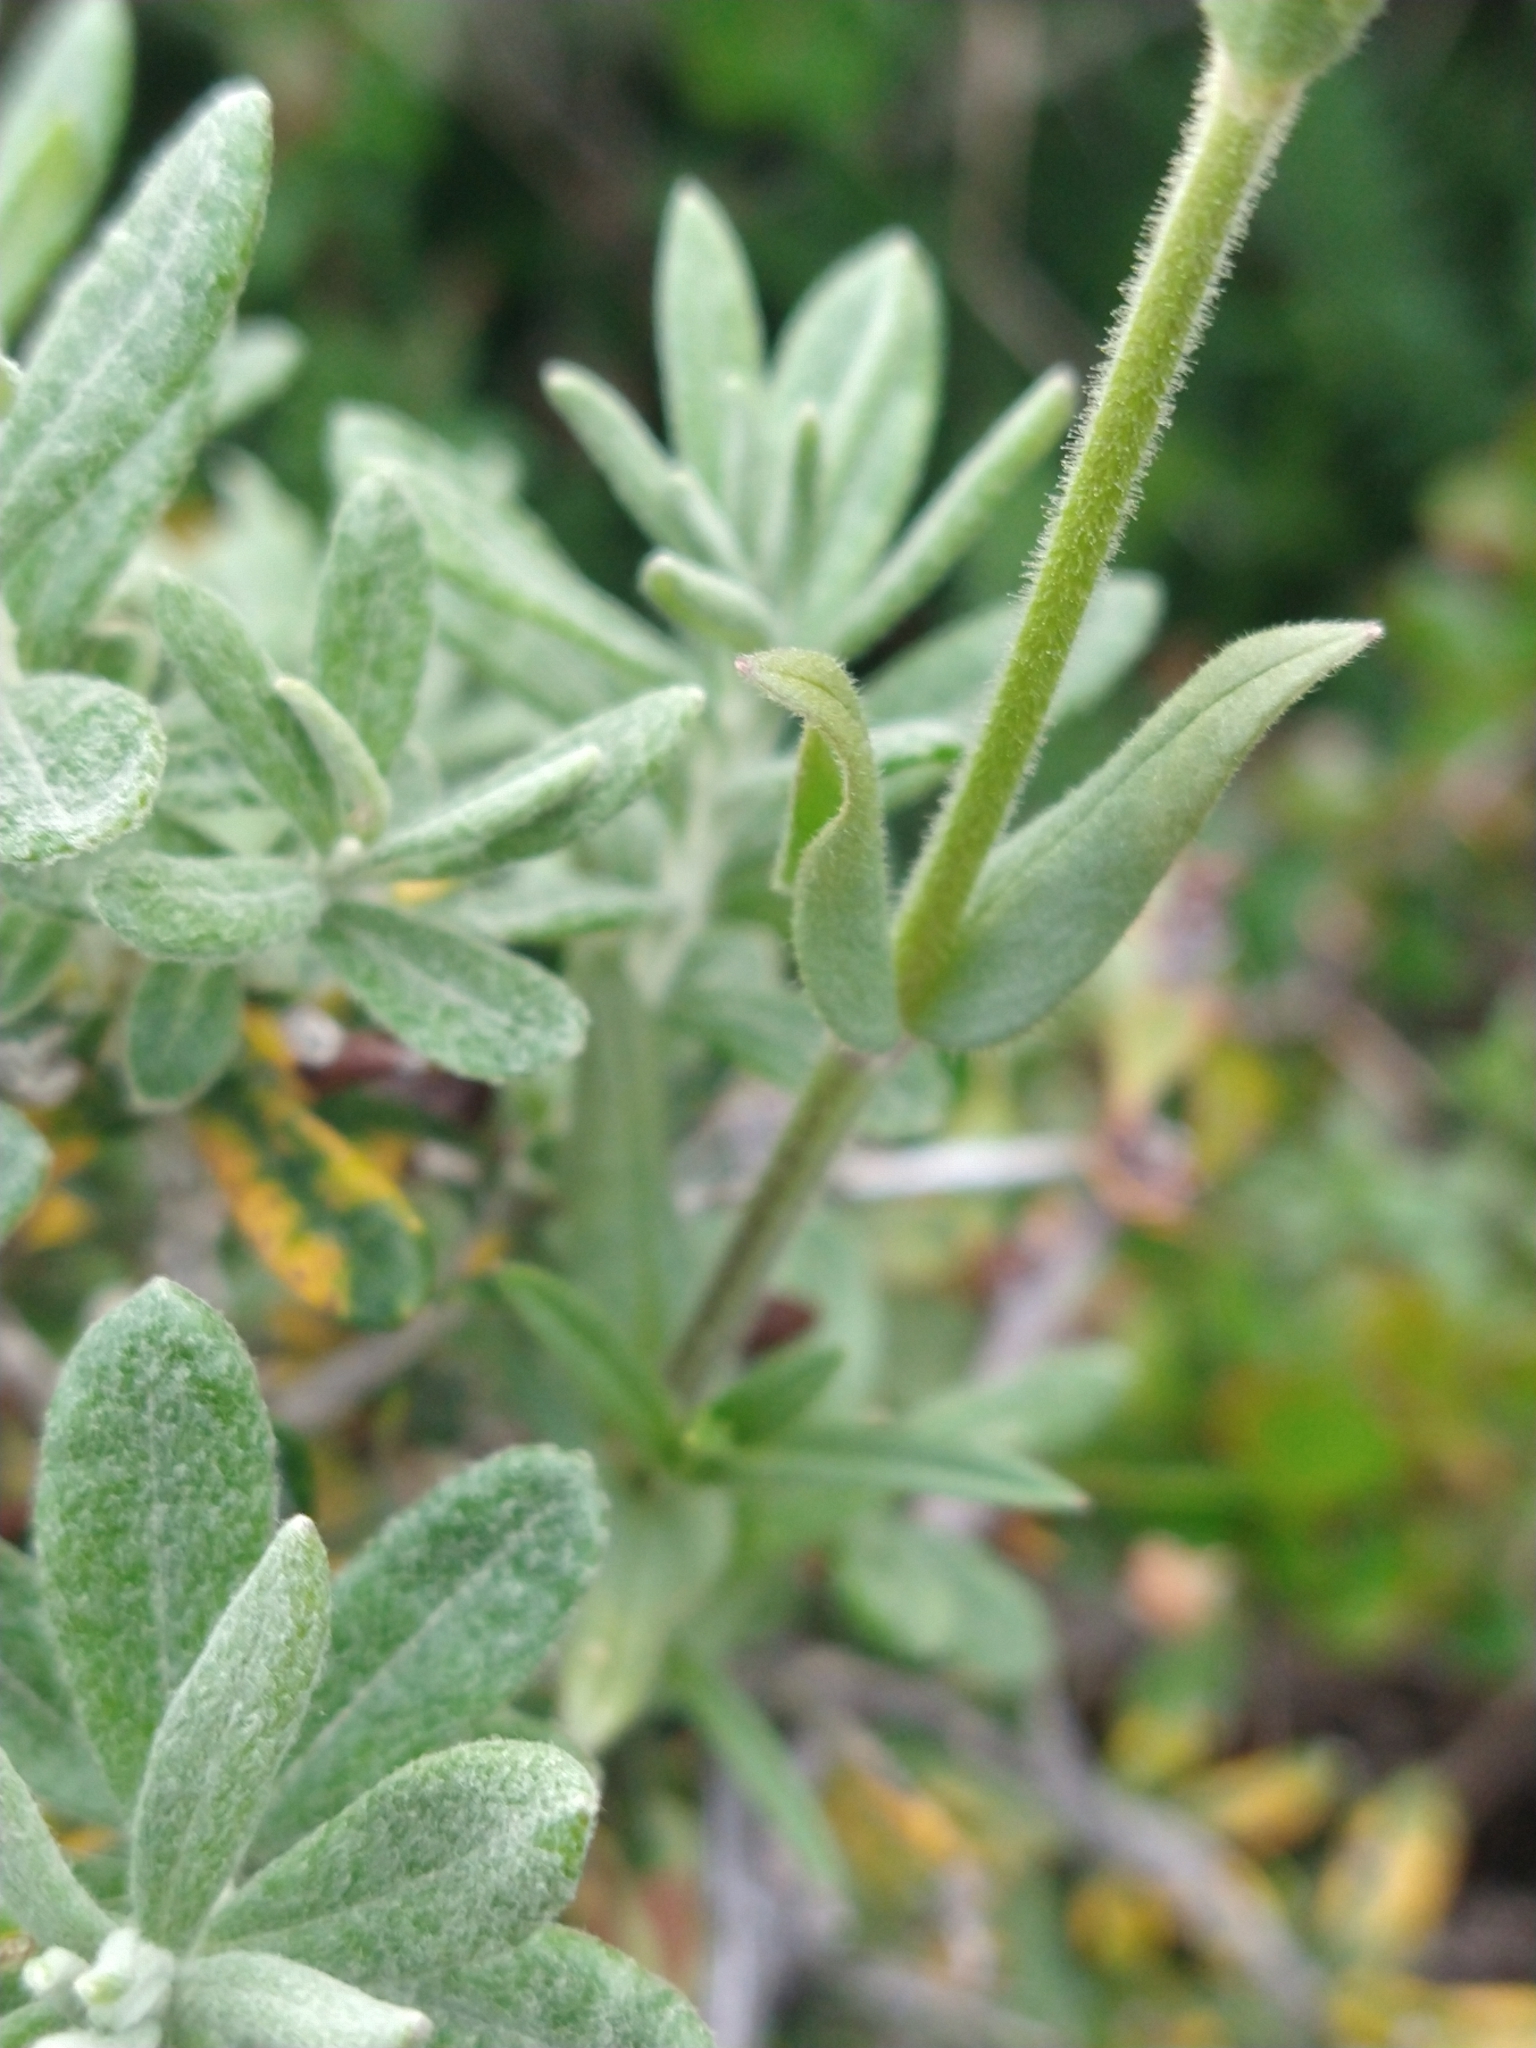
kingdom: Plantae
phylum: Tracheophyta
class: Magnoliopsida
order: Caryophyllales
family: Caryophyllaceae
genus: Cerastium
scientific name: Cerastium arvense
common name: Field mouse-ear
